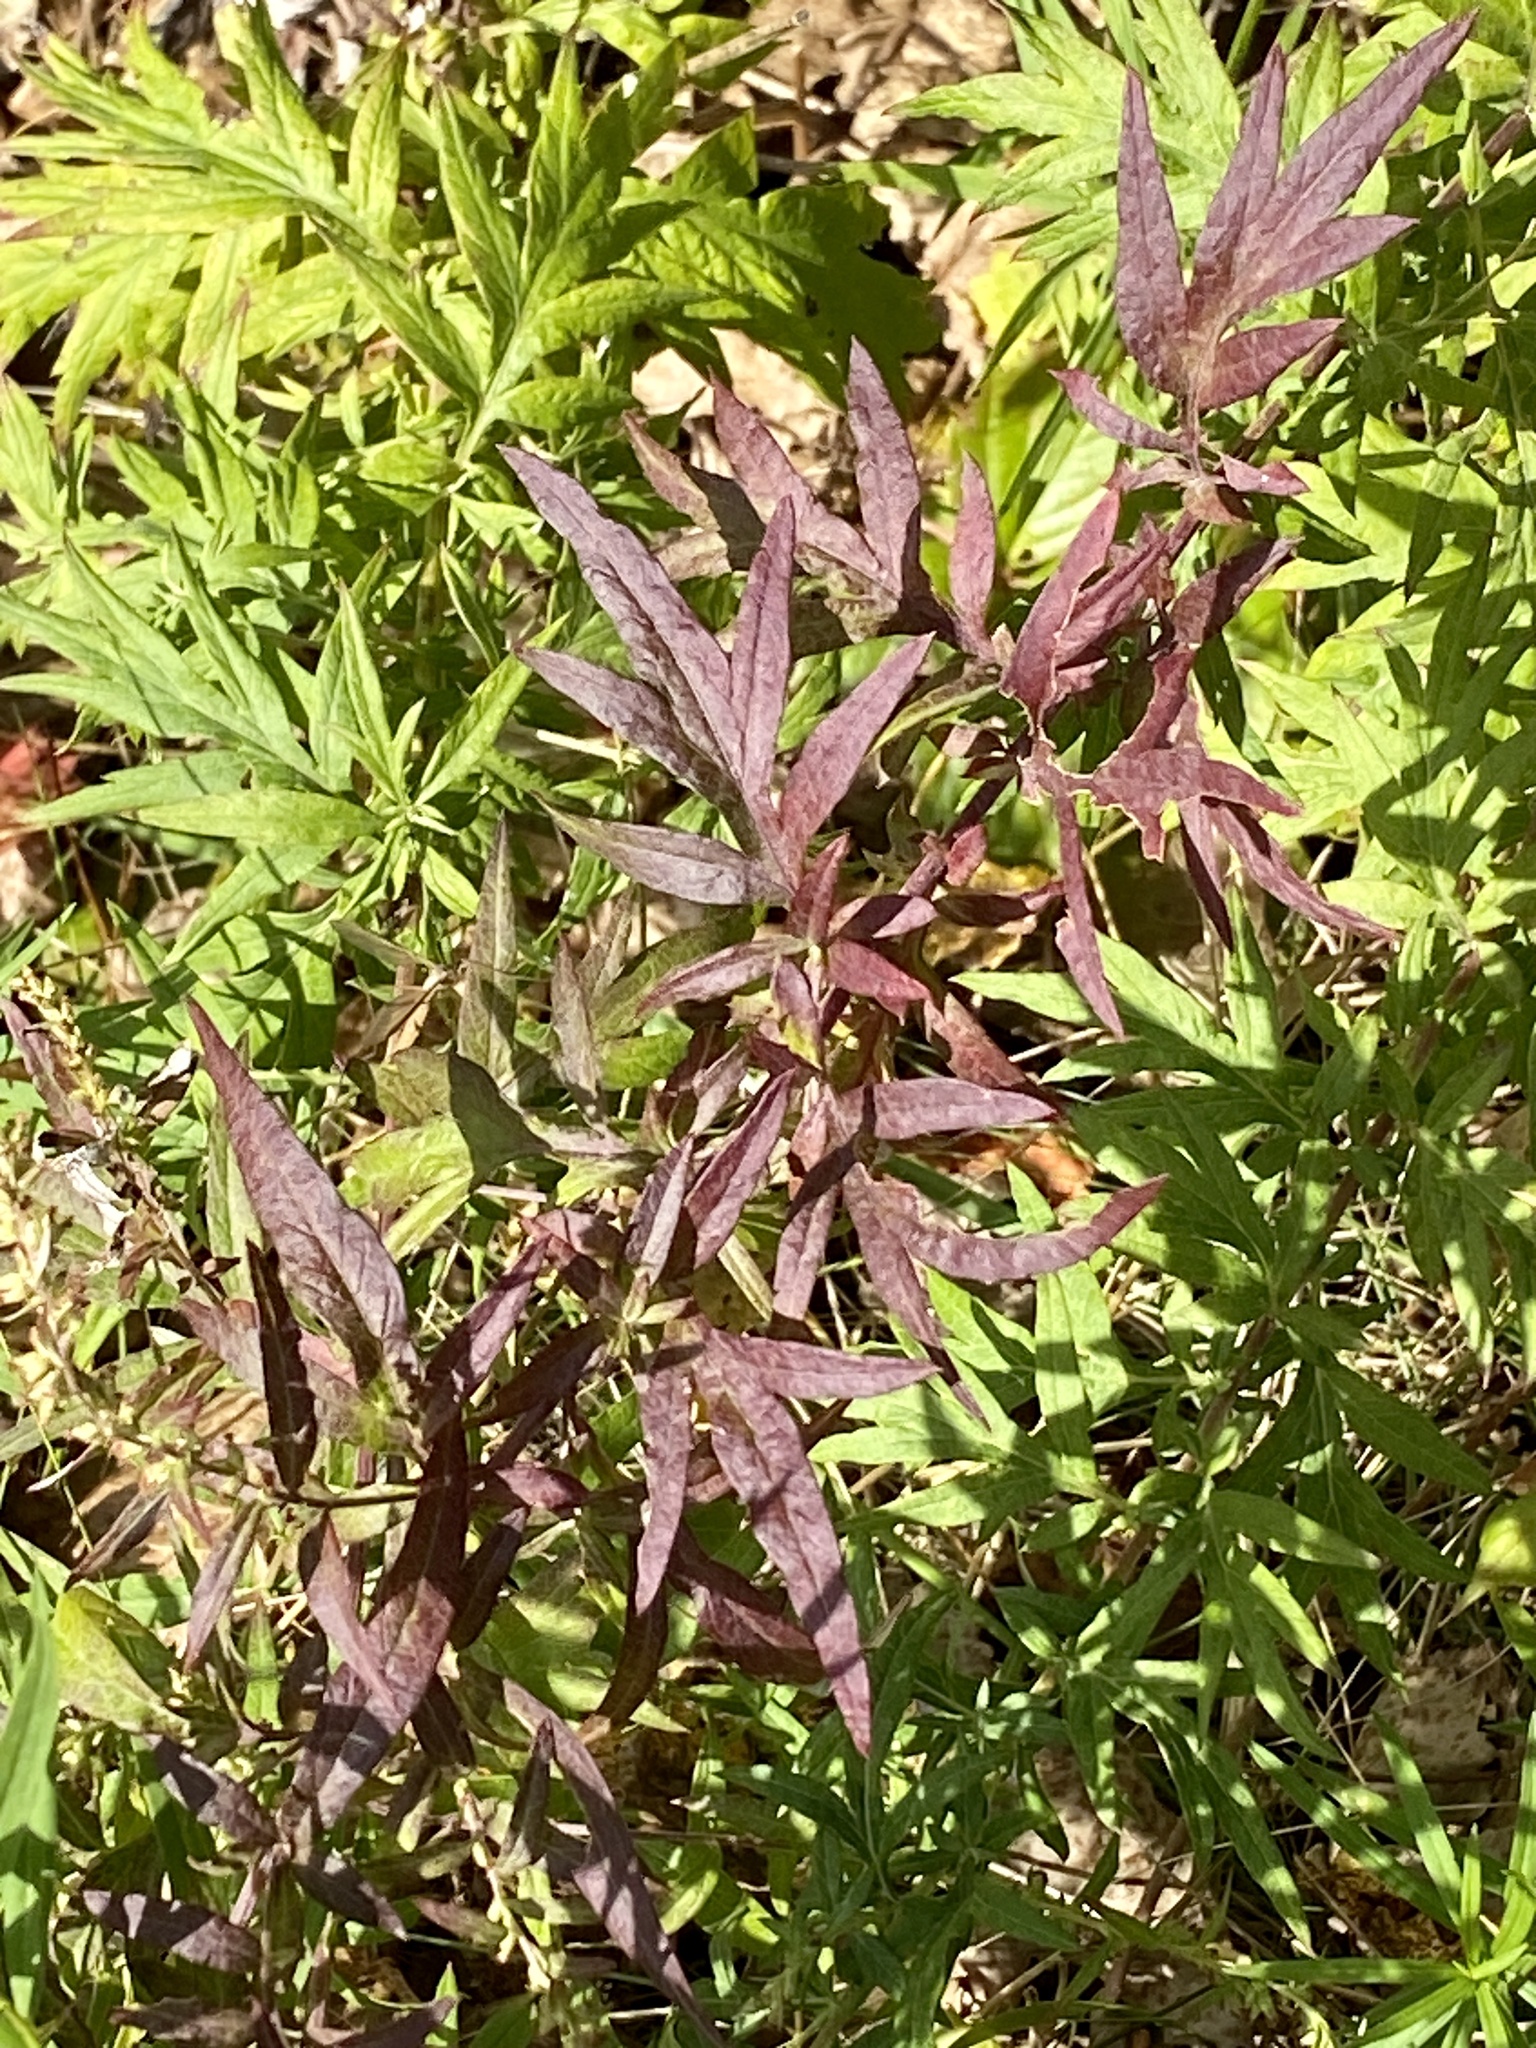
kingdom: Plantae
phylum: Tracheophyta
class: Magnoliopsida
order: Asterales
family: Asteraceae
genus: Artemisia
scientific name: Artemisia vulgaris
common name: Mugwort
